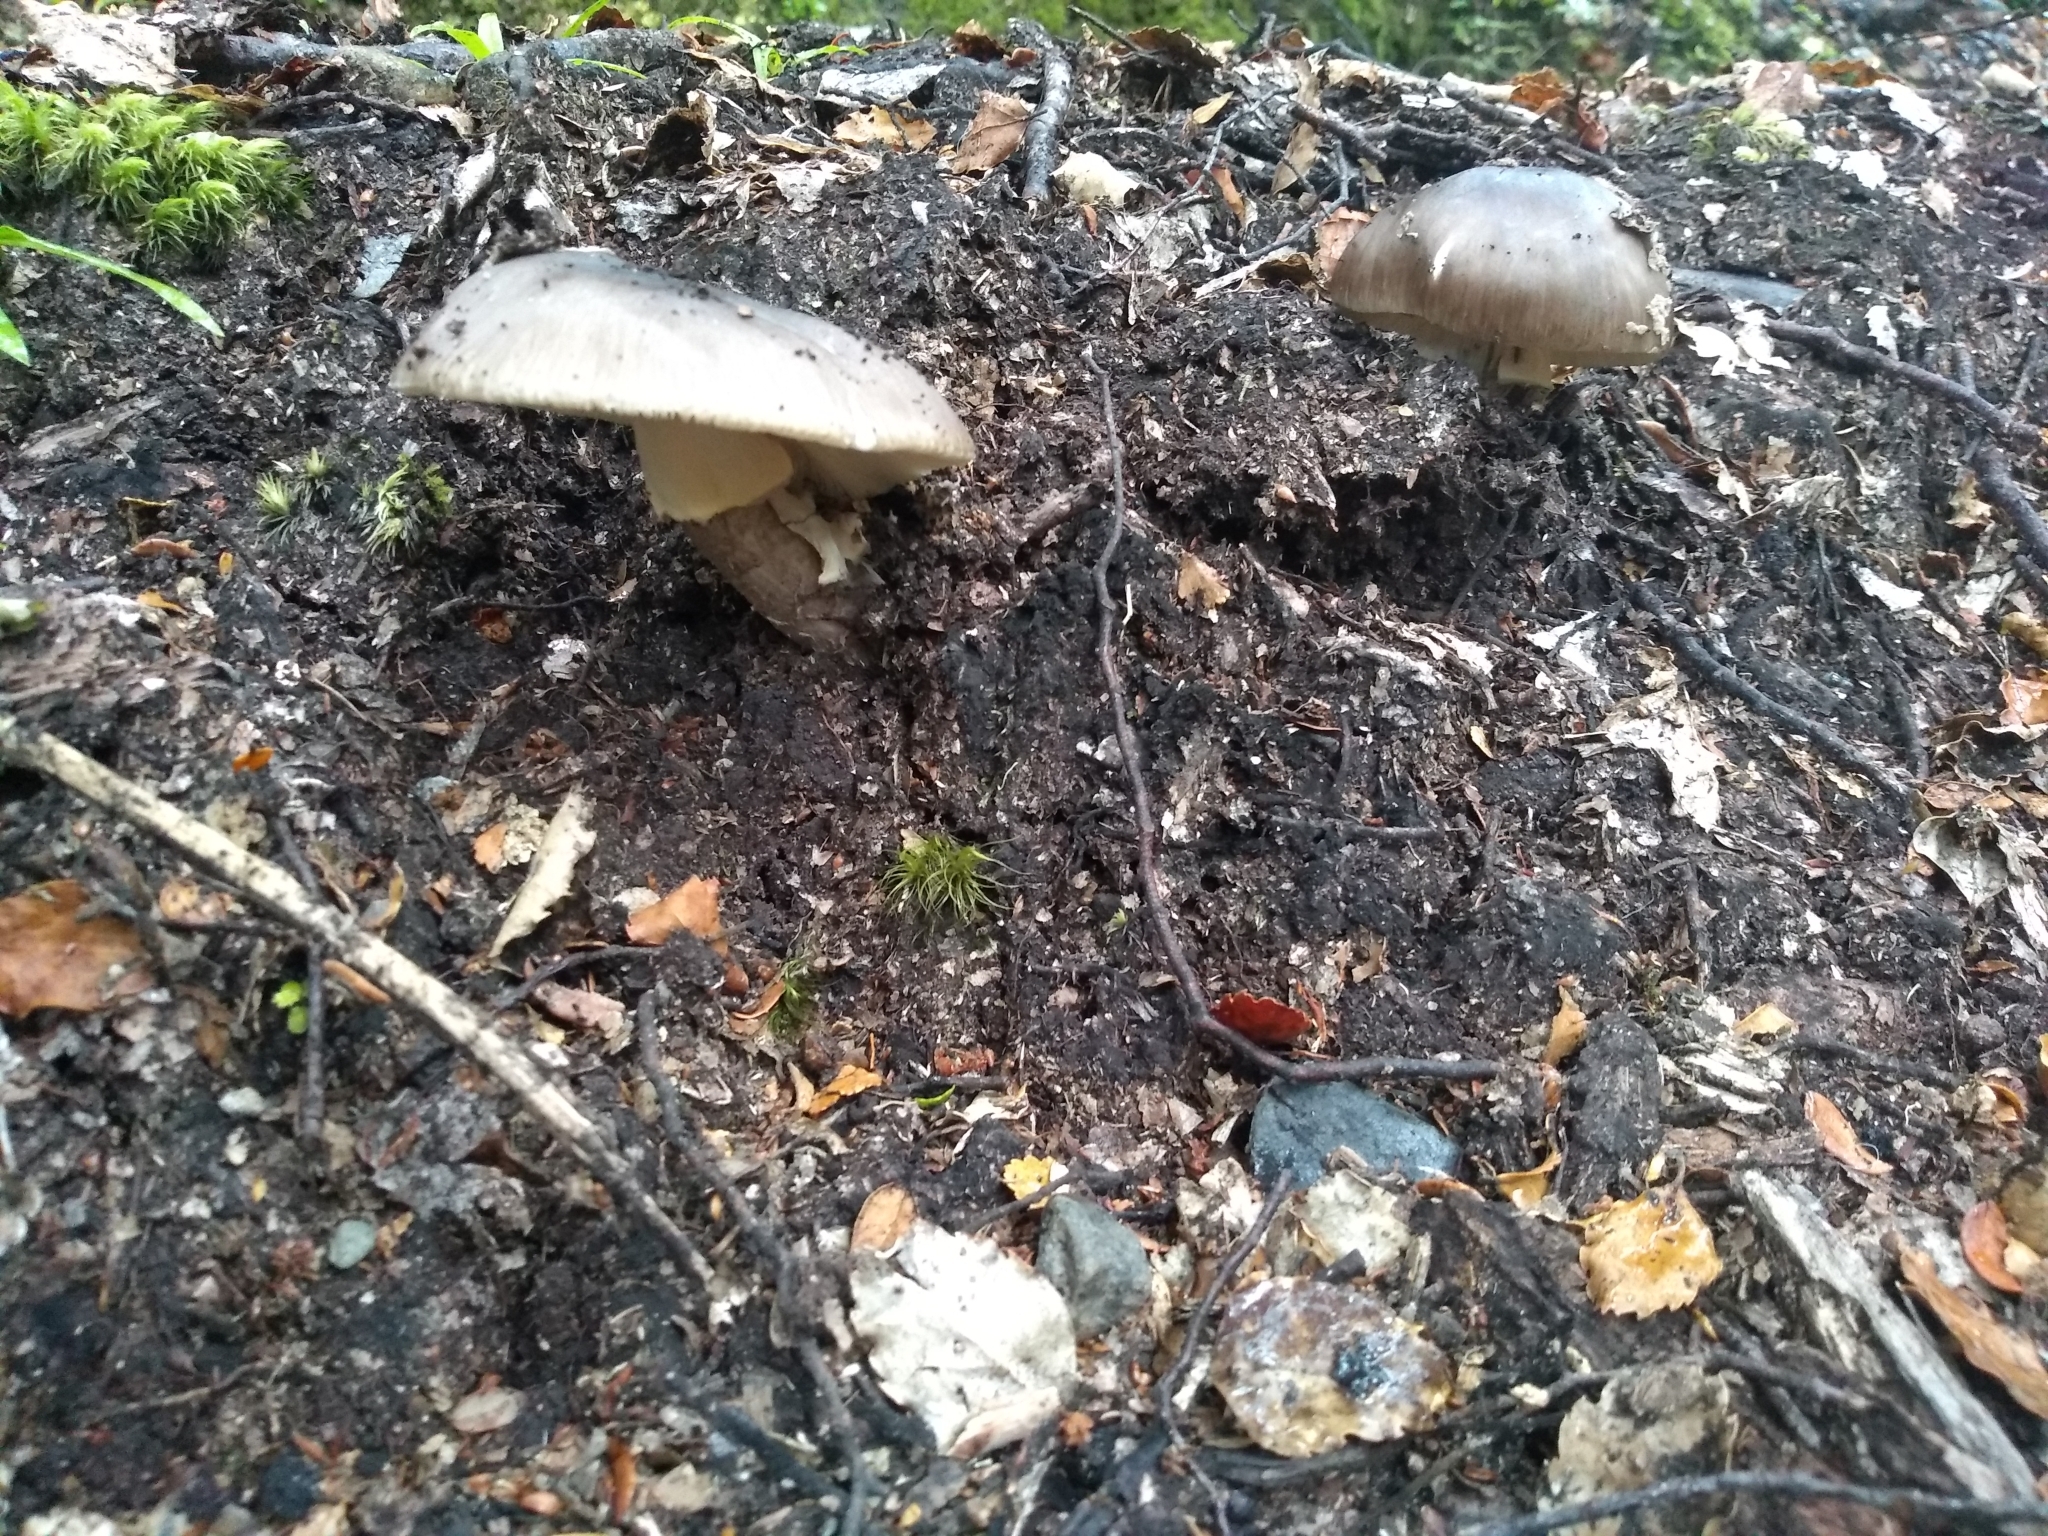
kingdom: Fungi
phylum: Basidiomycota
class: Agaricomycetes
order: Agaricales
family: Amanitaceae
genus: Amanita
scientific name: Amanita nothofagi
